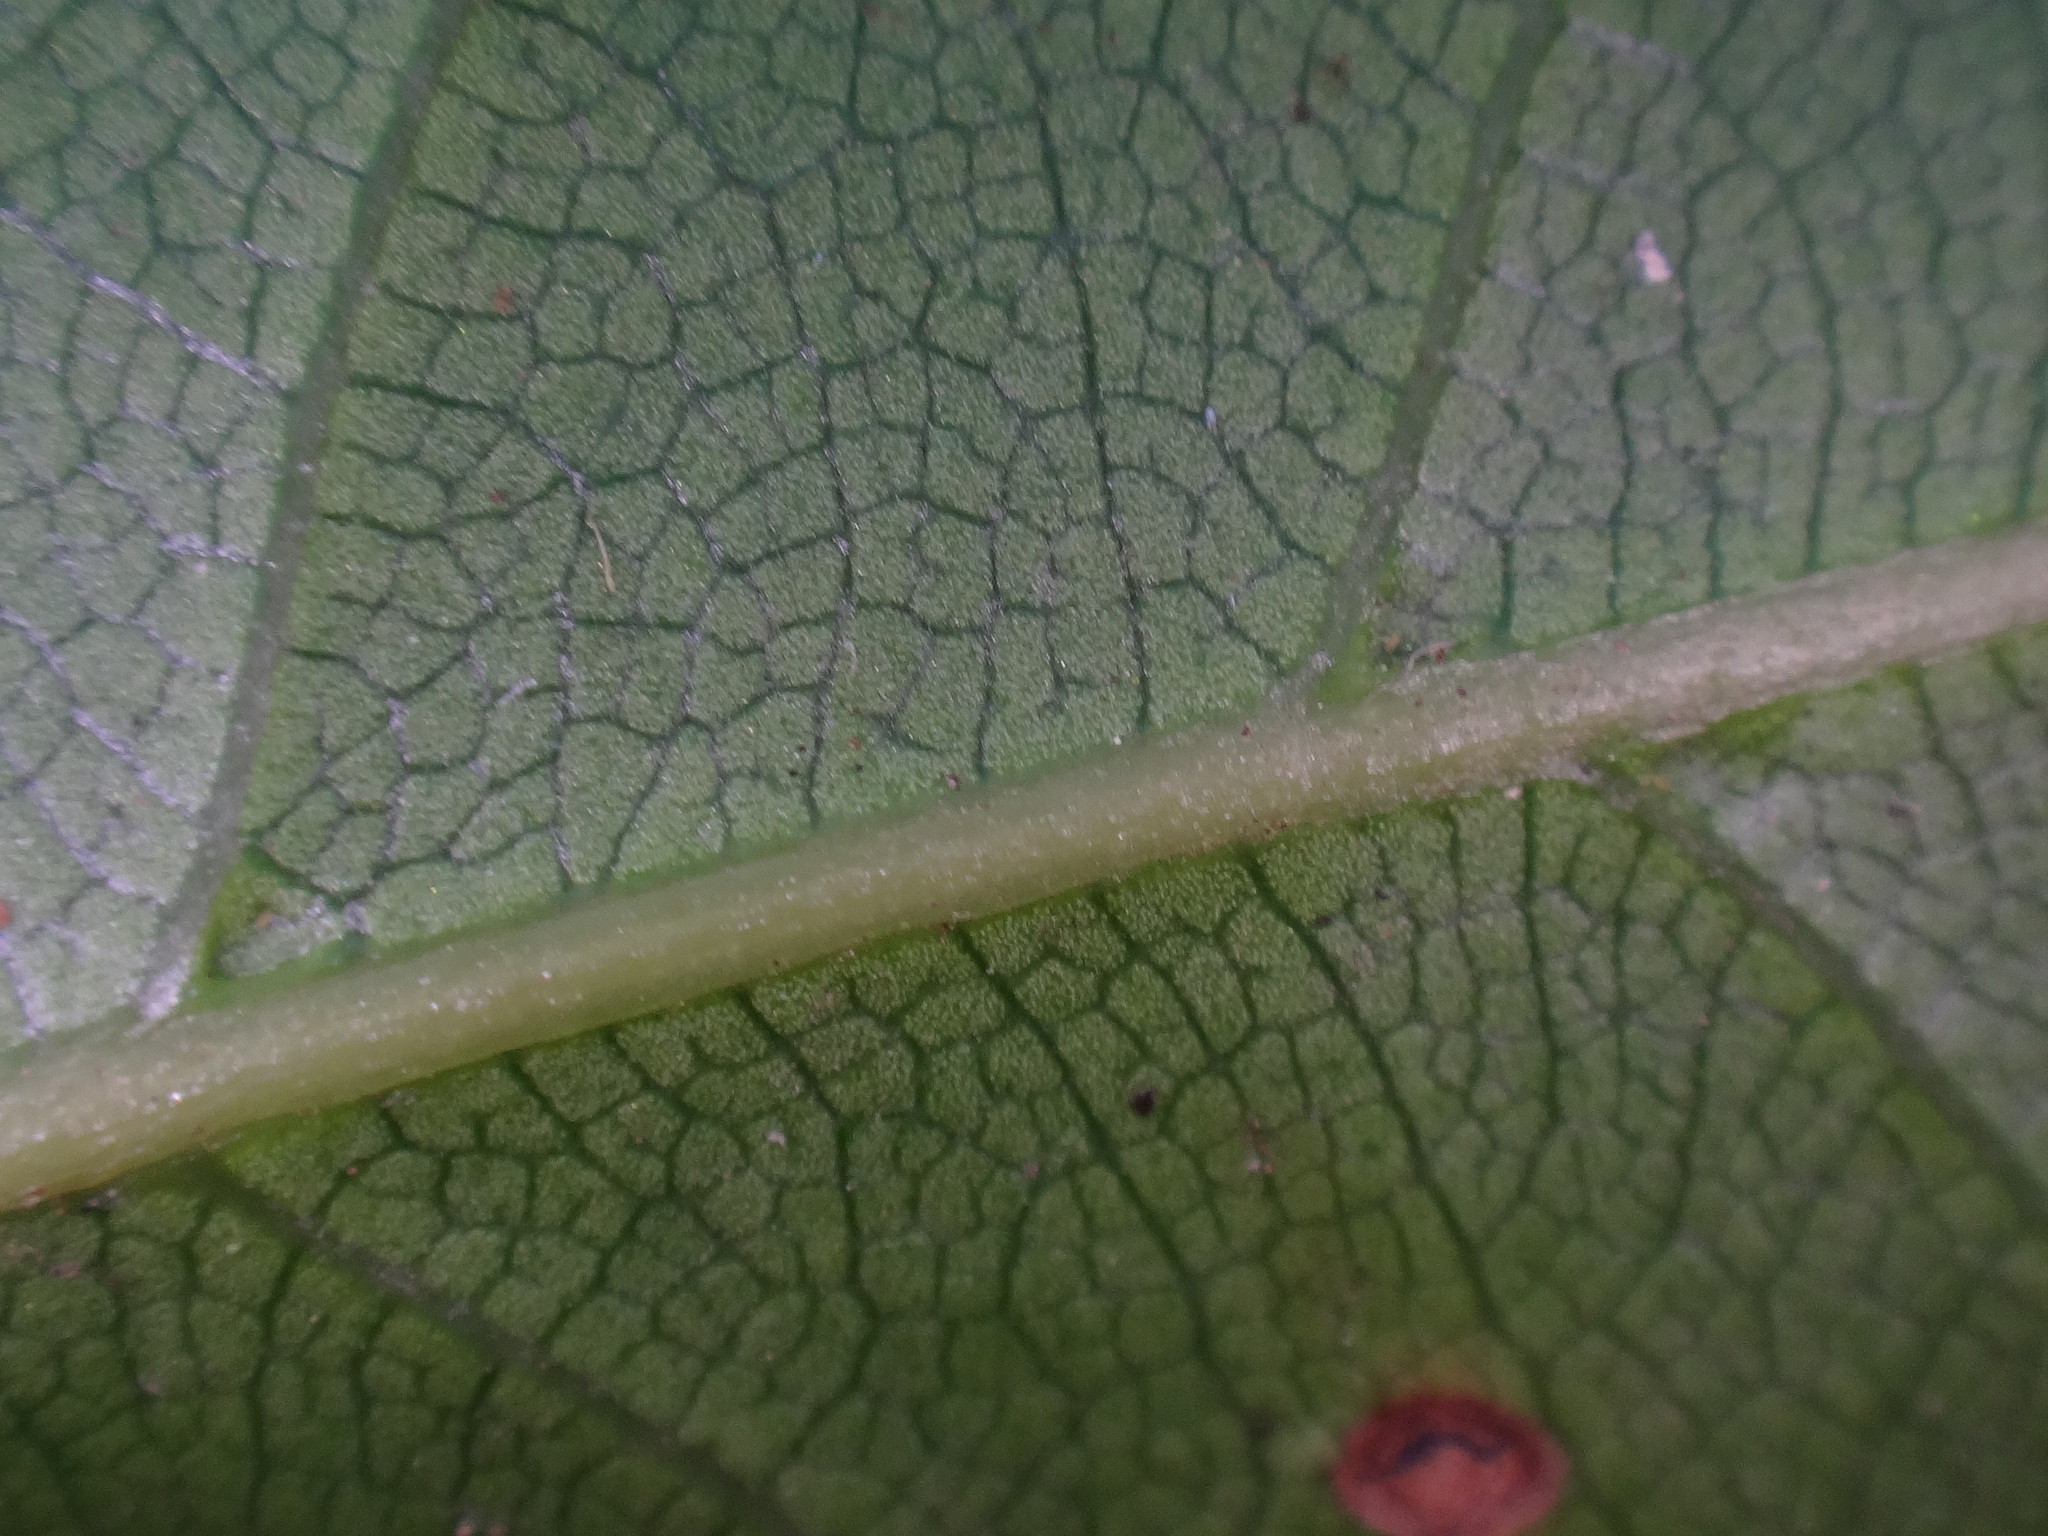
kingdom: Plantae
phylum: Tracheophyta
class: Magnoliopsida
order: Laurales
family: Lauraceae
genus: Laurus
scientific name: Laurus novocanariensis
